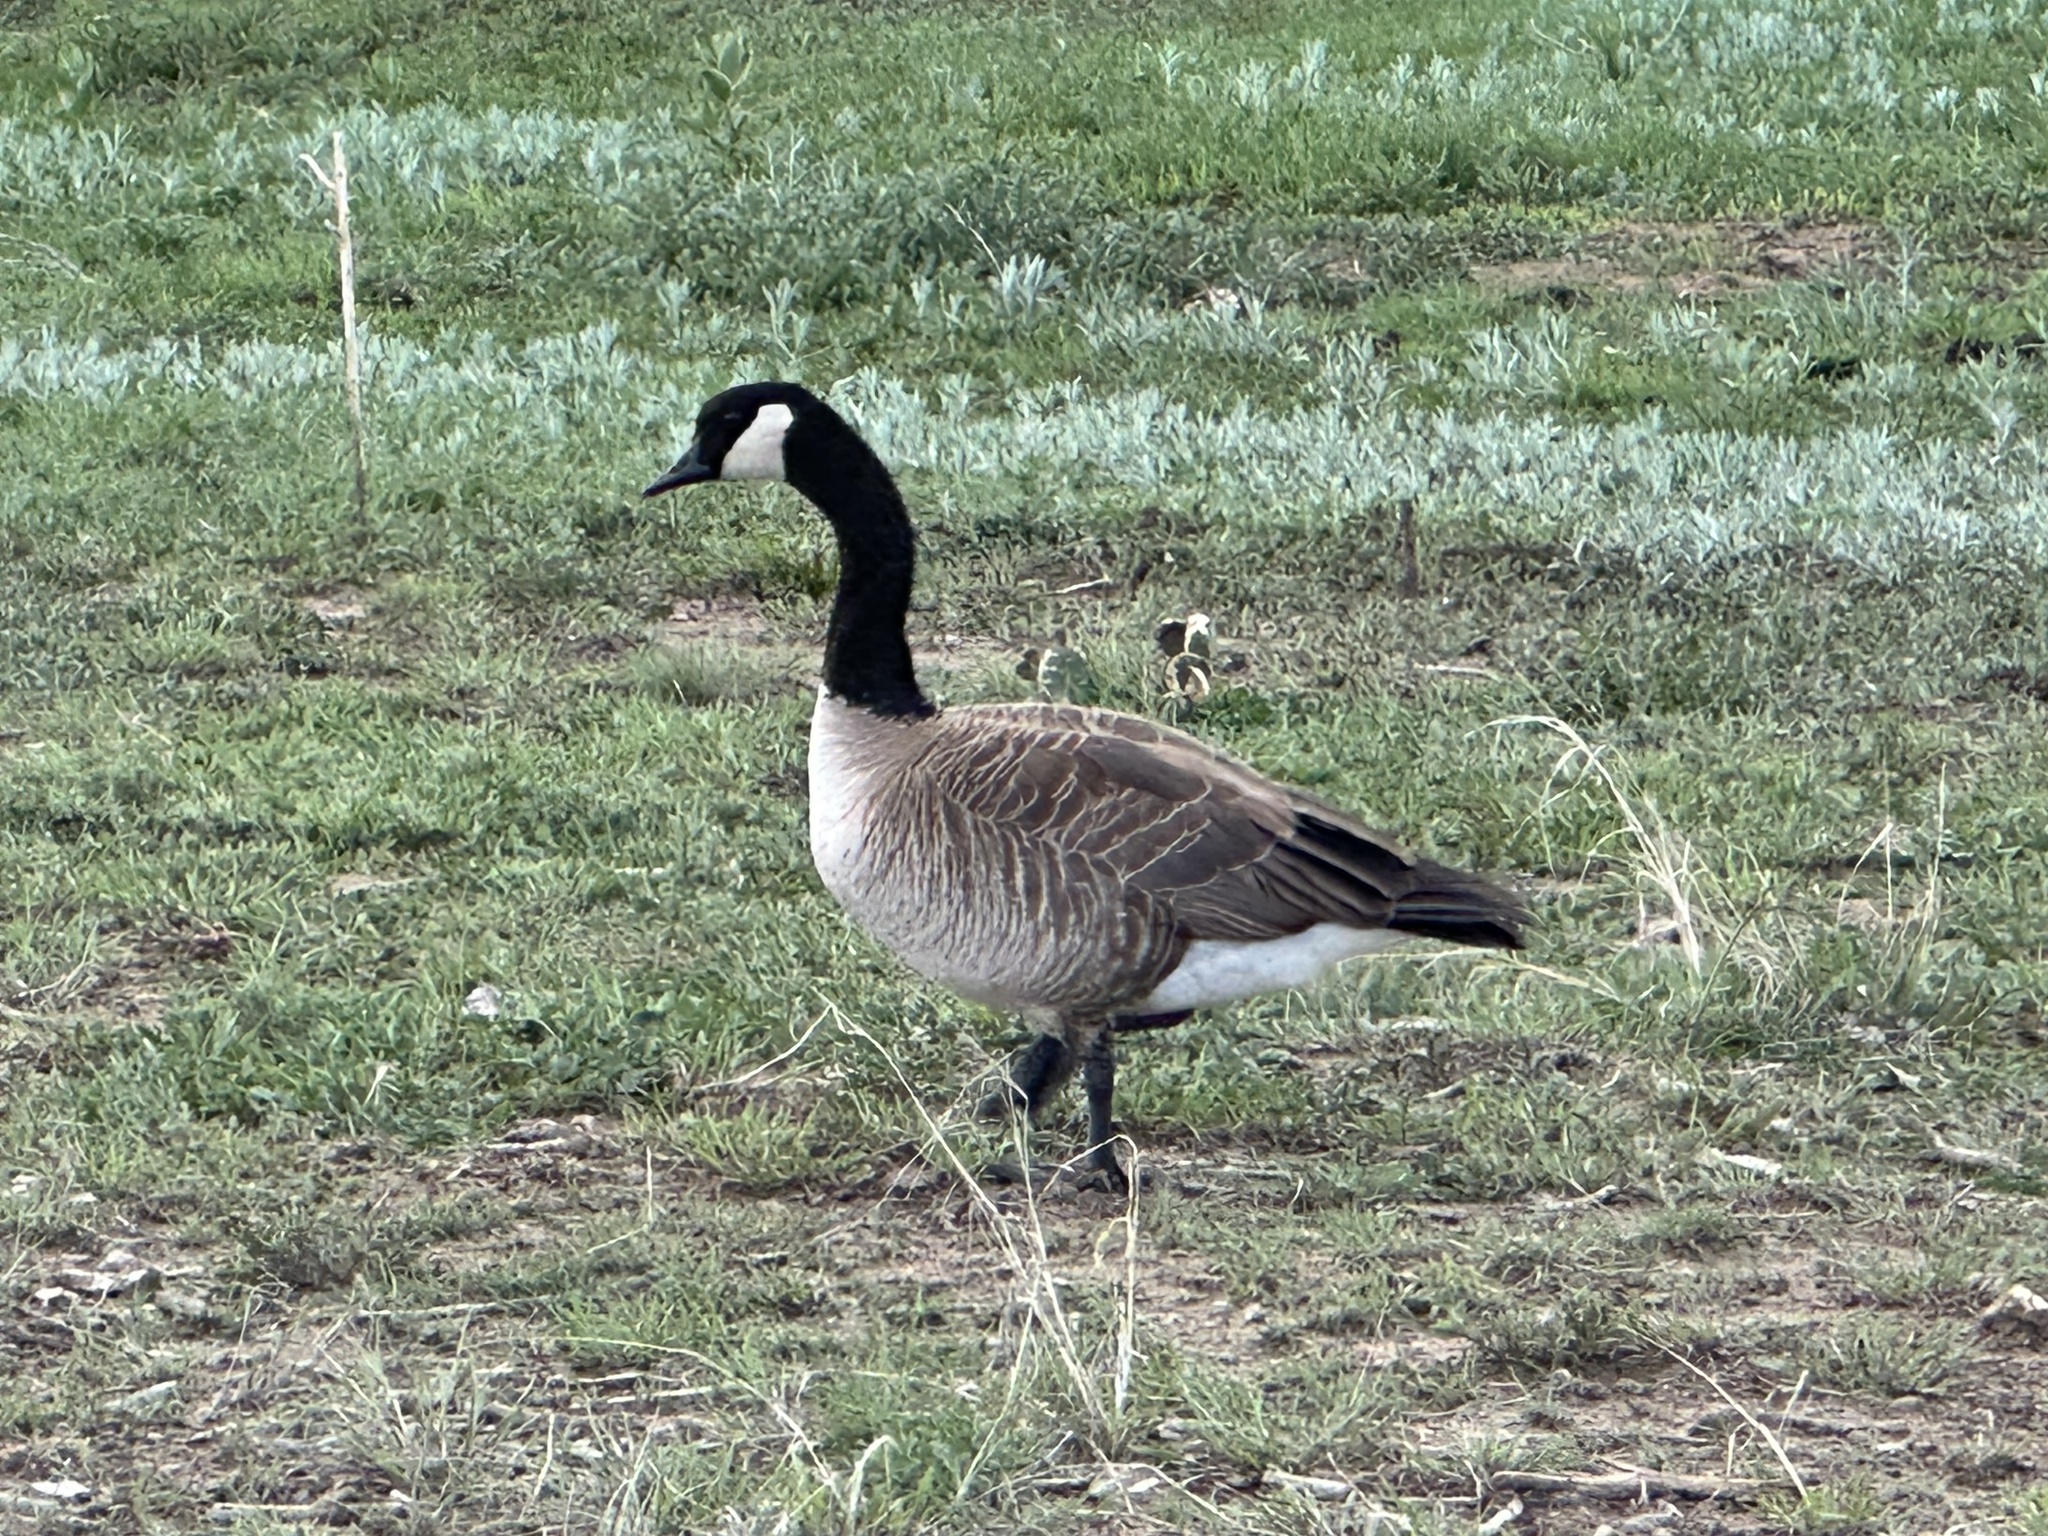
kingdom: Animalia
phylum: Chordata
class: Aves
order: Anseriformes
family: Anatidae
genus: Branta
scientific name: Branta canadensis
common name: Canada goose
